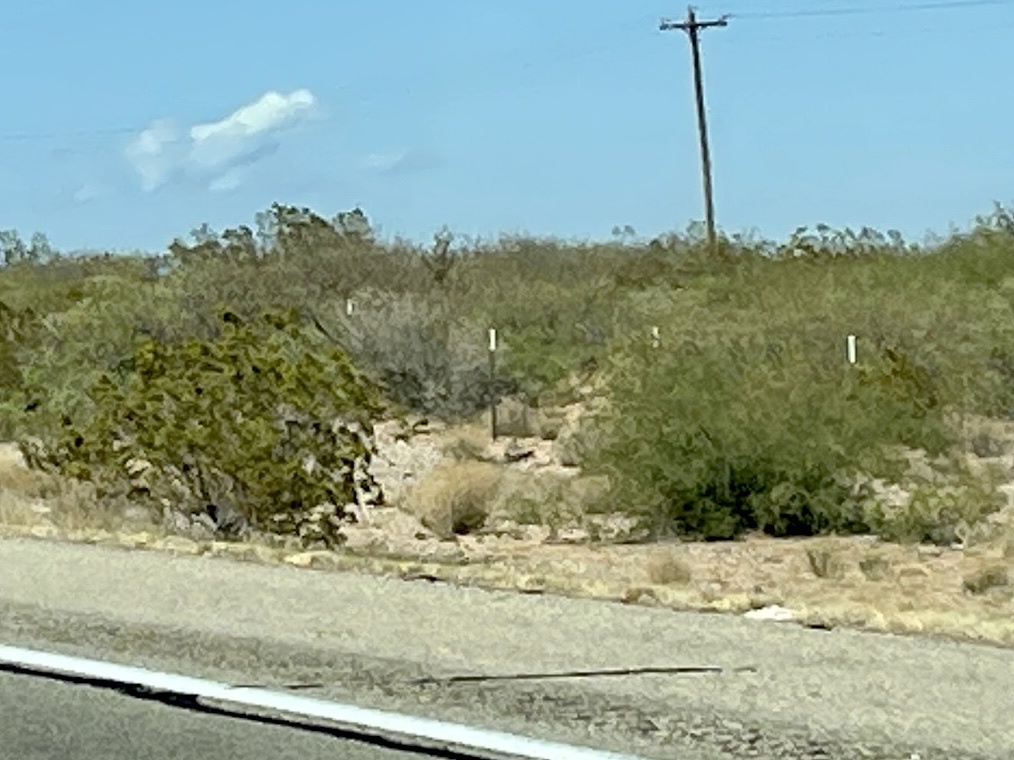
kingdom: Plantae
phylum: Tracheophyta
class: Magnoliopsida
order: Zygophyllales
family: Zygophyllaceae
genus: Larrea
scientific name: Larrea tridentata
